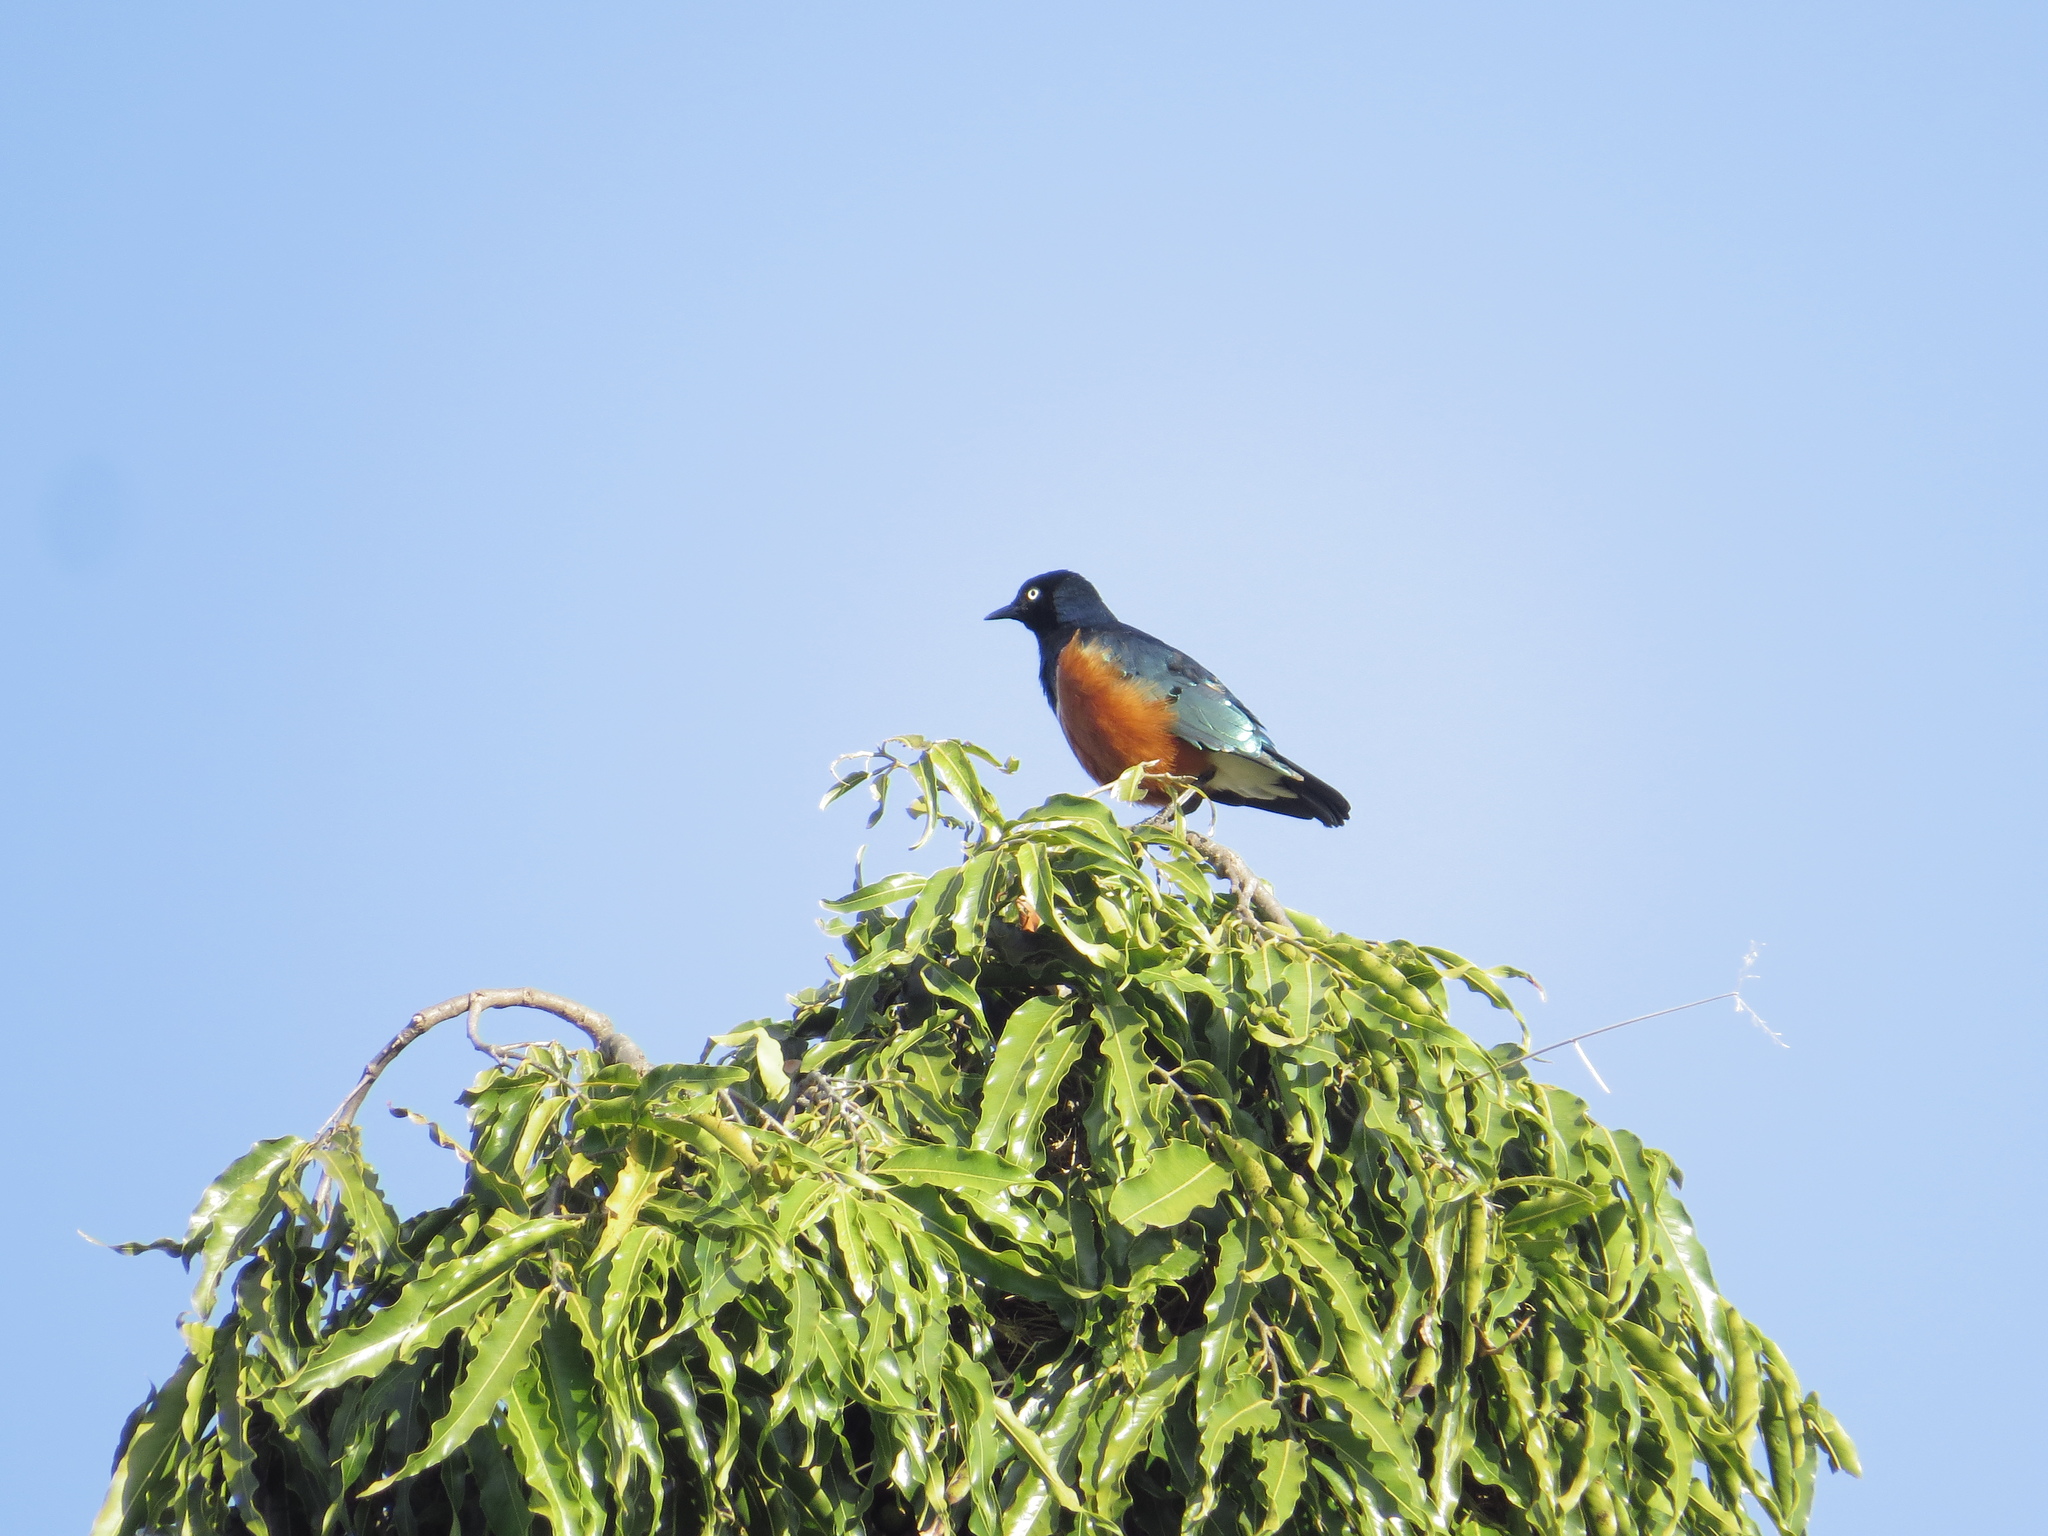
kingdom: Animalia
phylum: Chordata
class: Aves
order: Passeriformes
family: Sturnidae
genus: Lamprotornis
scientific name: Lamprotornis superbus
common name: Superb starling
